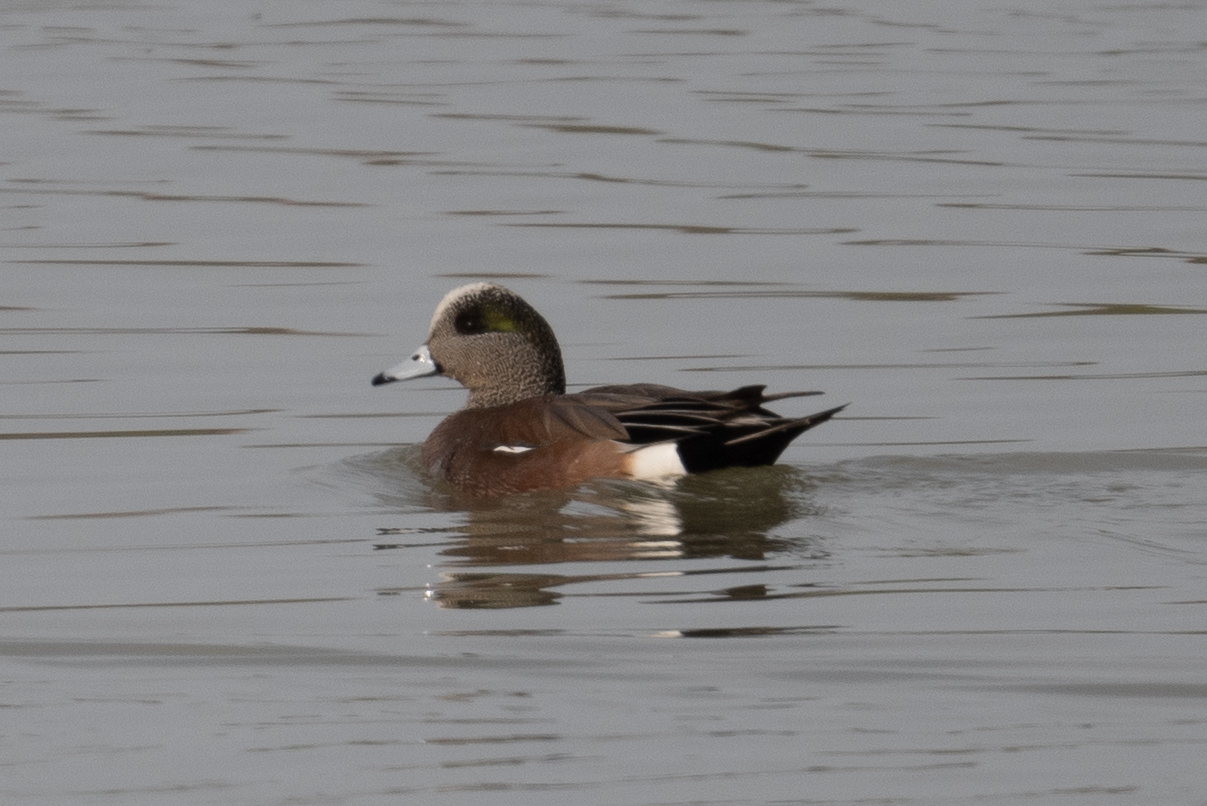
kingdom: Animalia
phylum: Chordata
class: Aves
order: Anseriformes
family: Anatidae
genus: Mareca
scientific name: Mareca americana
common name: American wigeon
